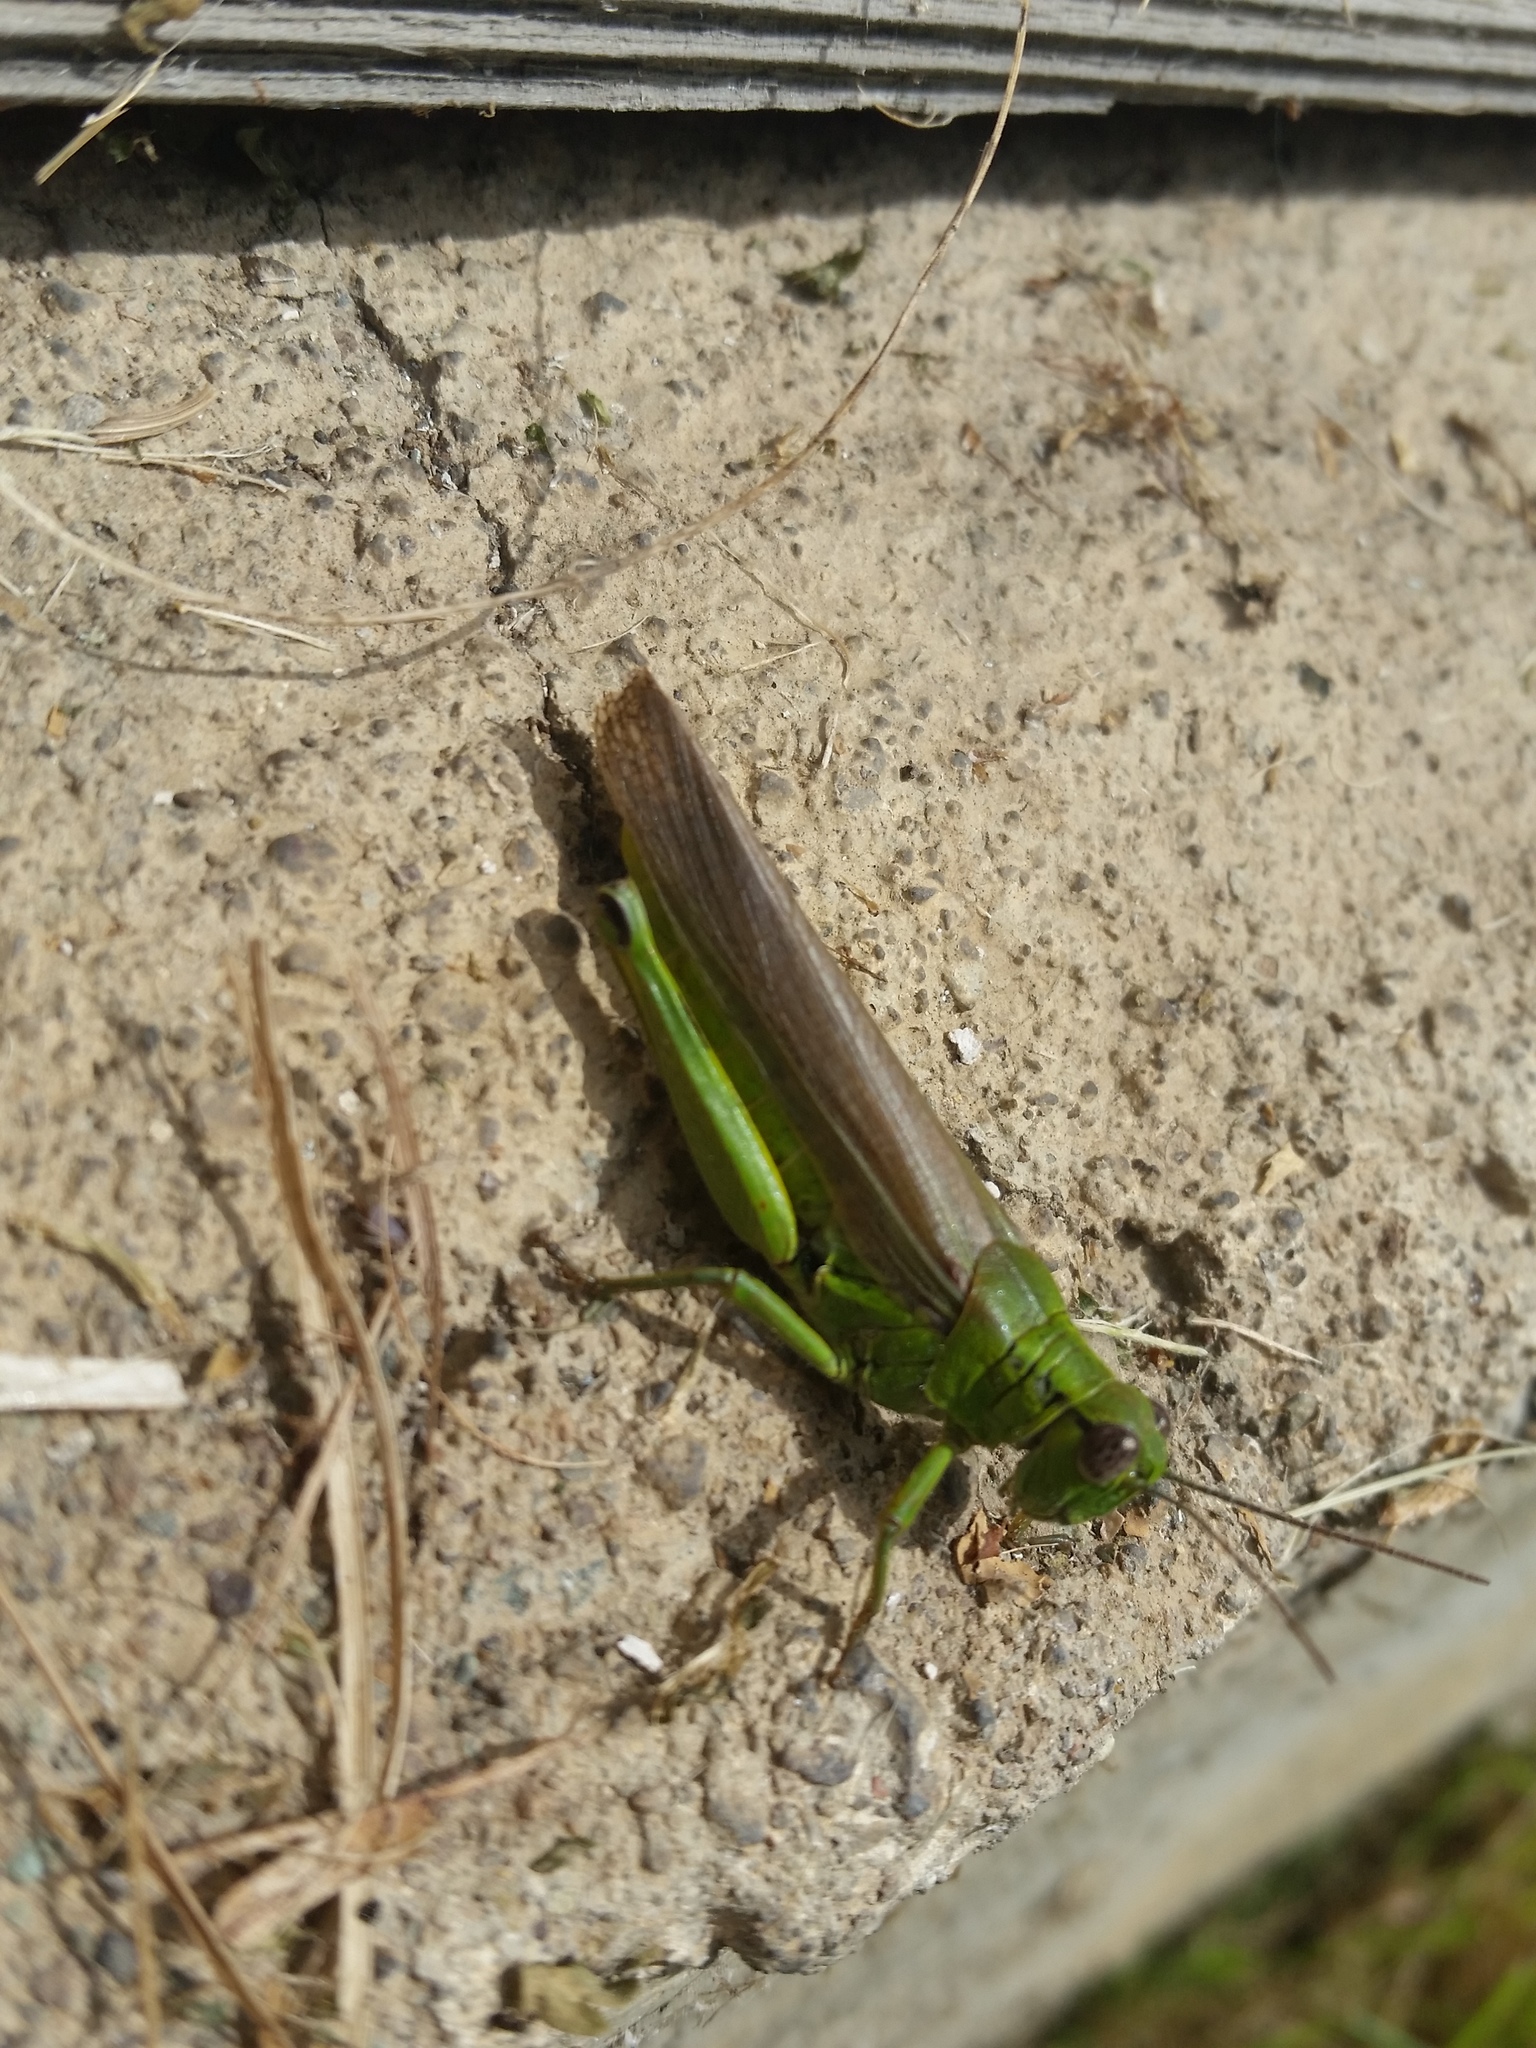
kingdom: Animalia
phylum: Arthropoda
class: Insecta
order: Orthoptera
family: Acrididae
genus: Confusacris
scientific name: Confusacris longipennis
